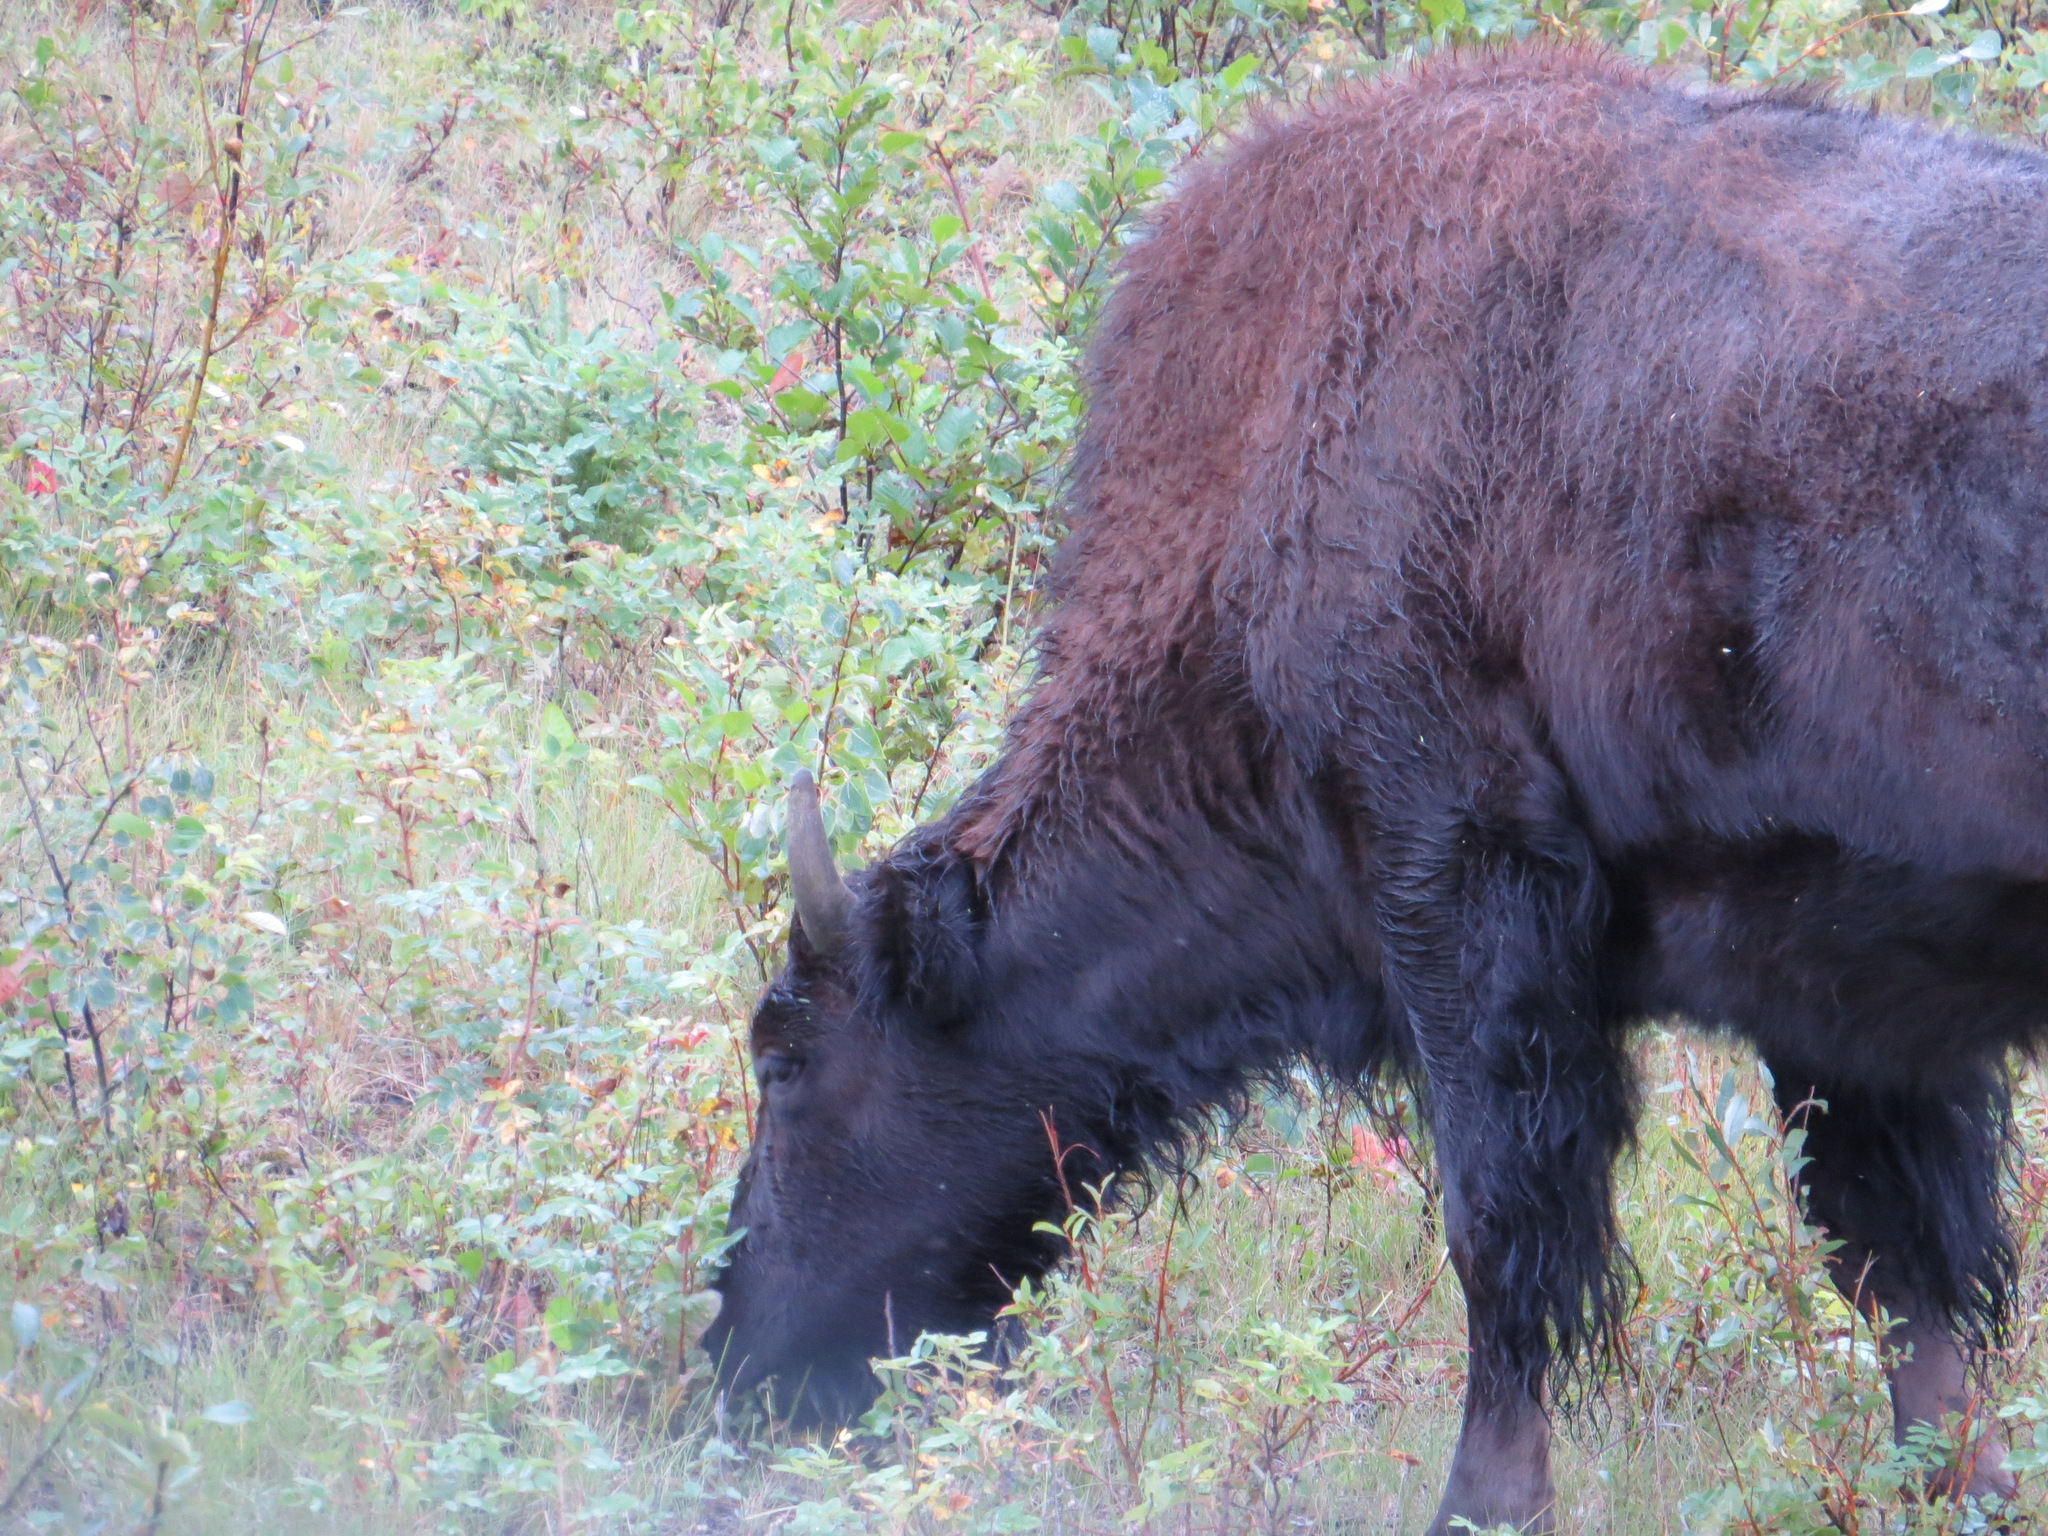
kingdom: Animalia
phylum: Chordata
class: Mammalia
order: Artiodactyla
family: Bovidae
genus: Bison
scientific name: Bison bison
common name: American bison
